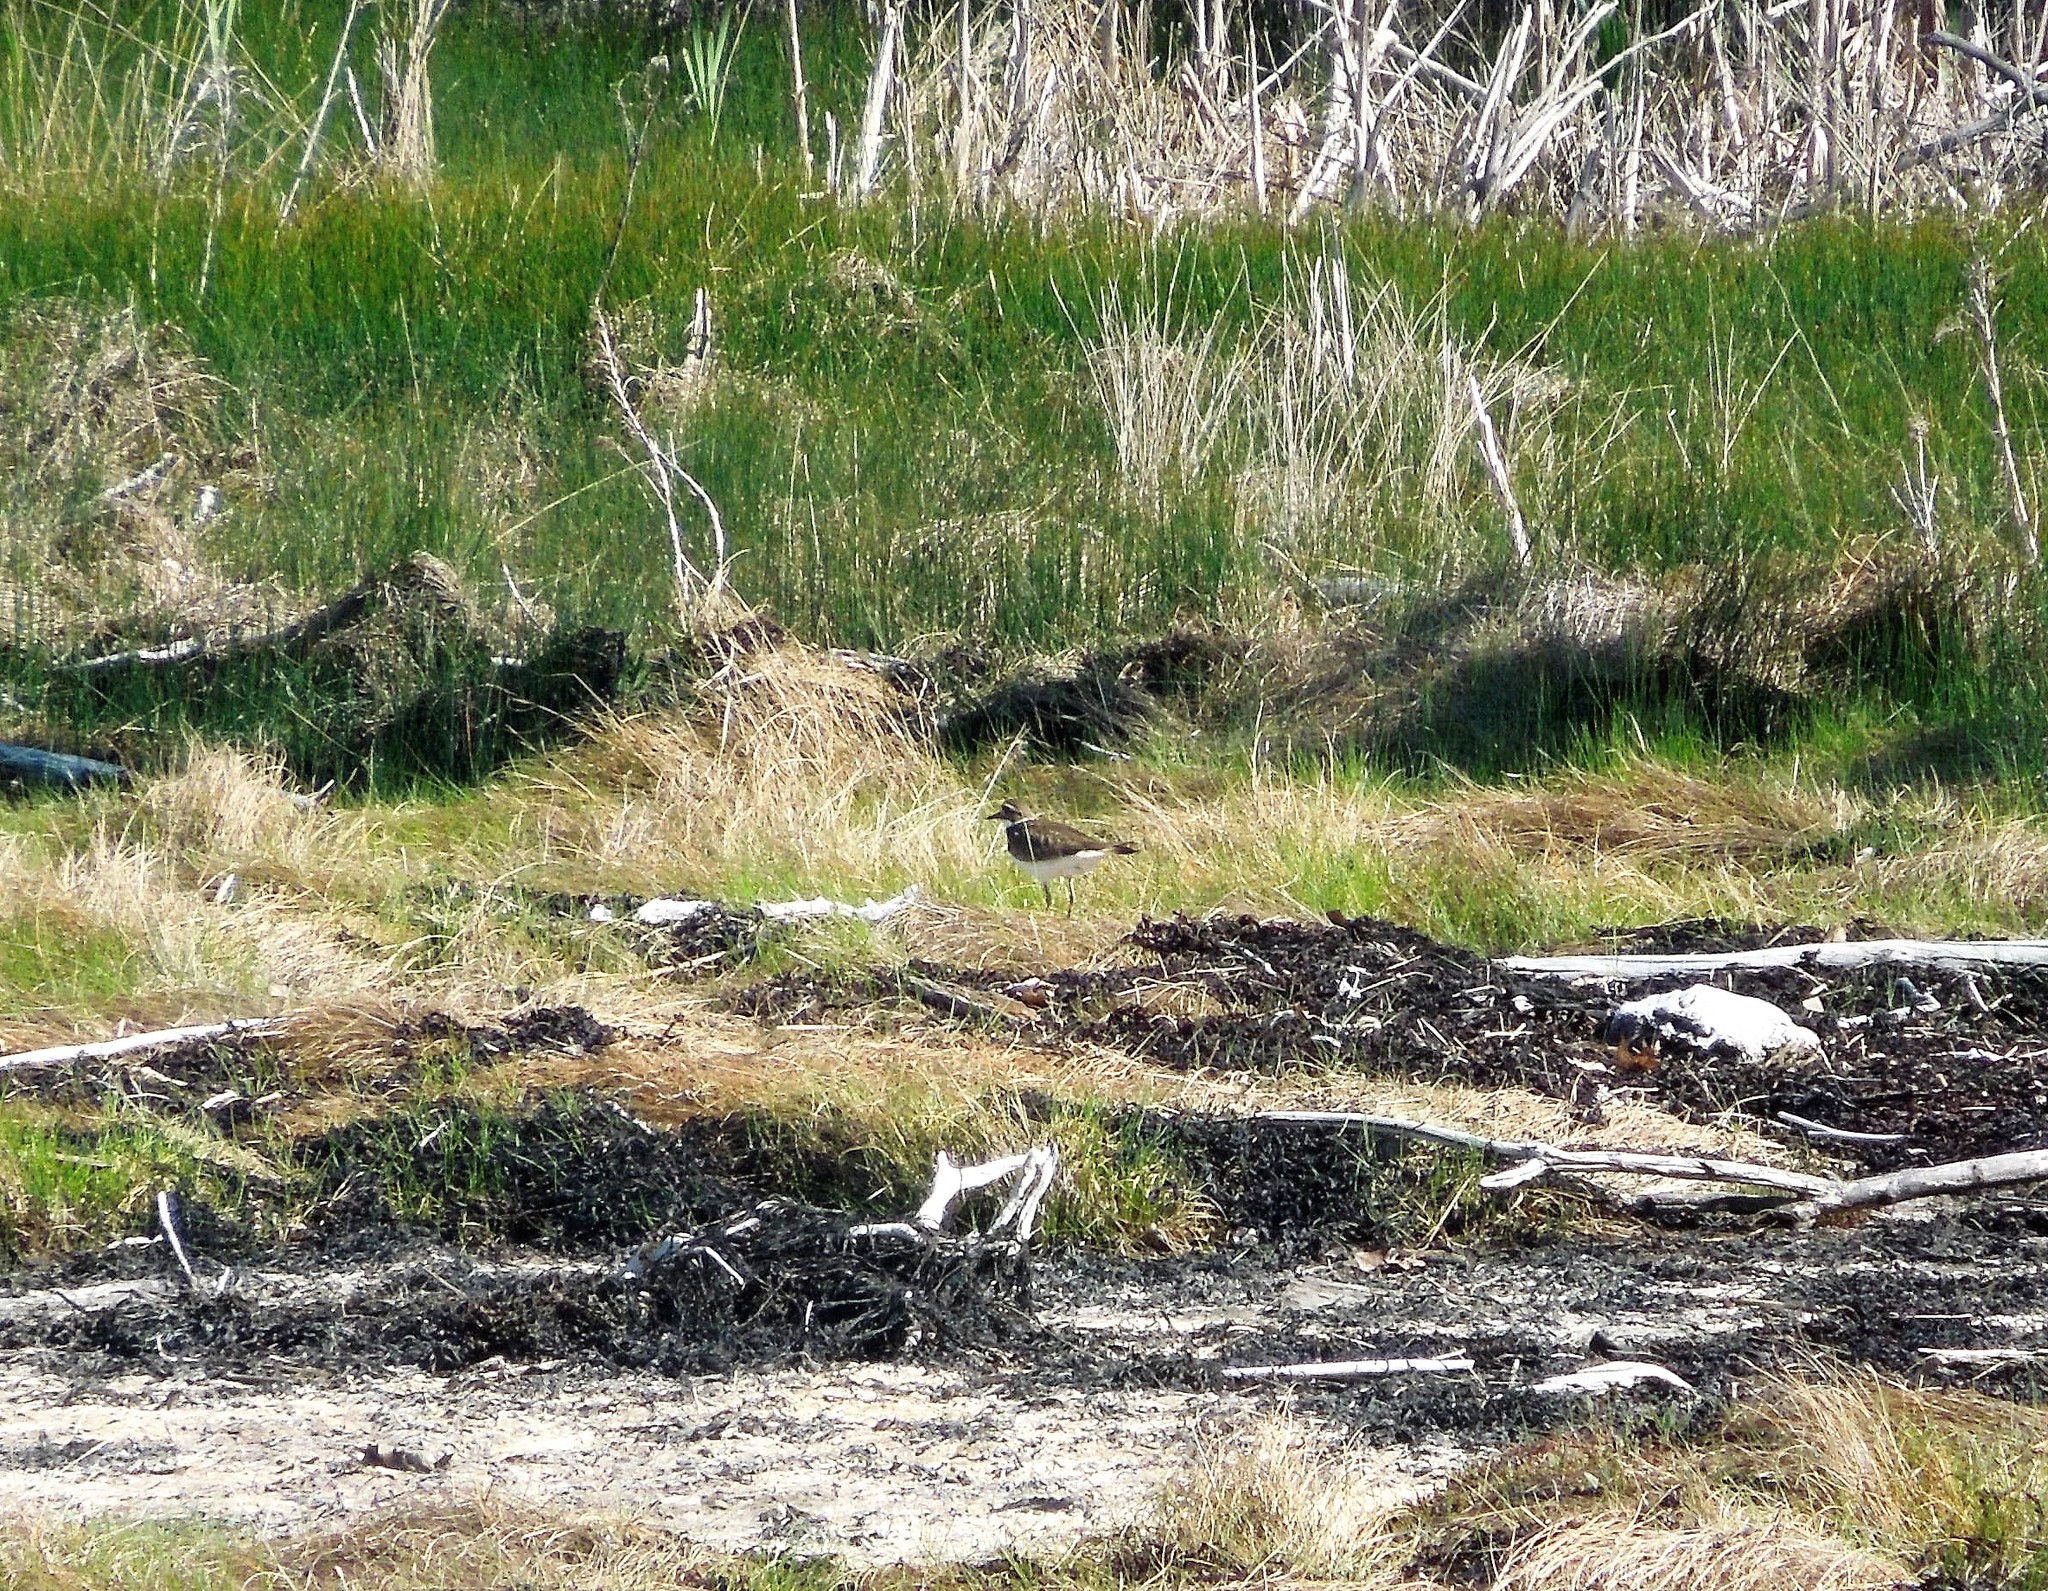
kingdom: Animalia
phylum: Chordata
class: Aves
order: Charadriiformes
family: Charadriidae
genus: Charadrius
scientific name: Charadrius vociferus
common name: Killdeer
